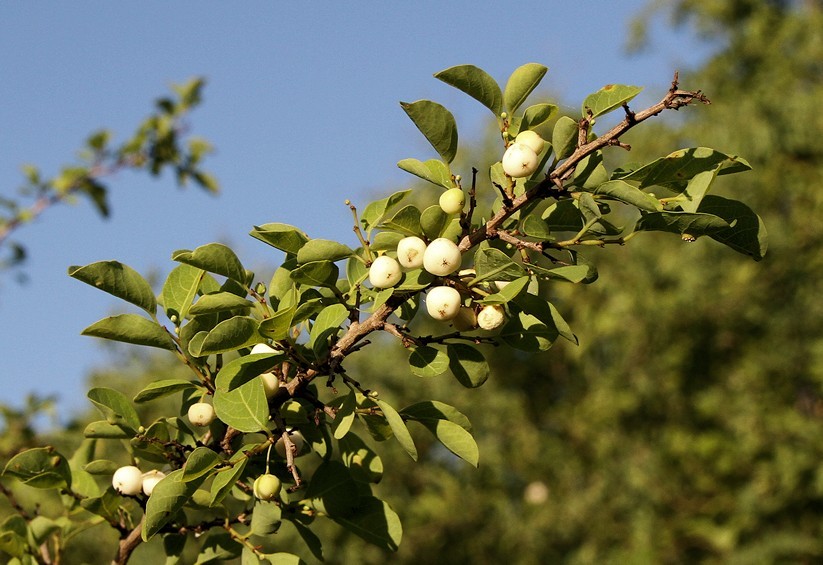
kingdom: Plantae
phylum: Tracheophyta
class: Magnoliopsida
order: Malpighiales
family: Phyllanthaceae
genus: Flueggea
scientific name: Flueggea virosa
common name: Common bushweed
